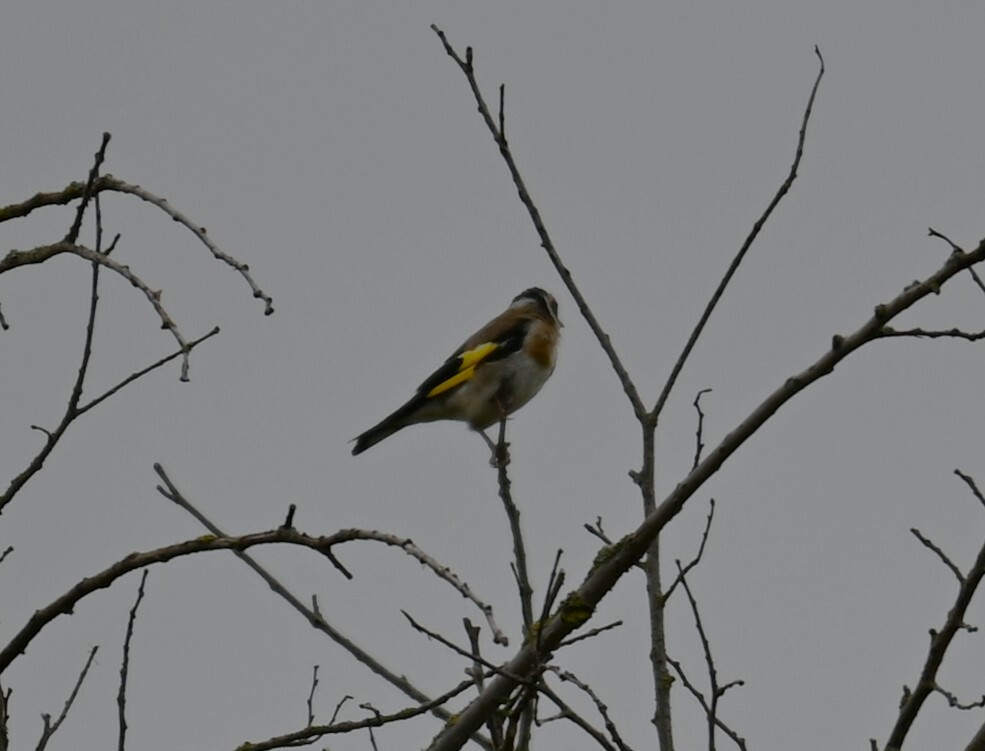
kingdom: Animalia
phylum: Chordata
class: Aves
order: Passeriformes
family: Fringillidae
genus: Carduelis
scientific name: Carduelis carduelis
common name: European goldfinch
